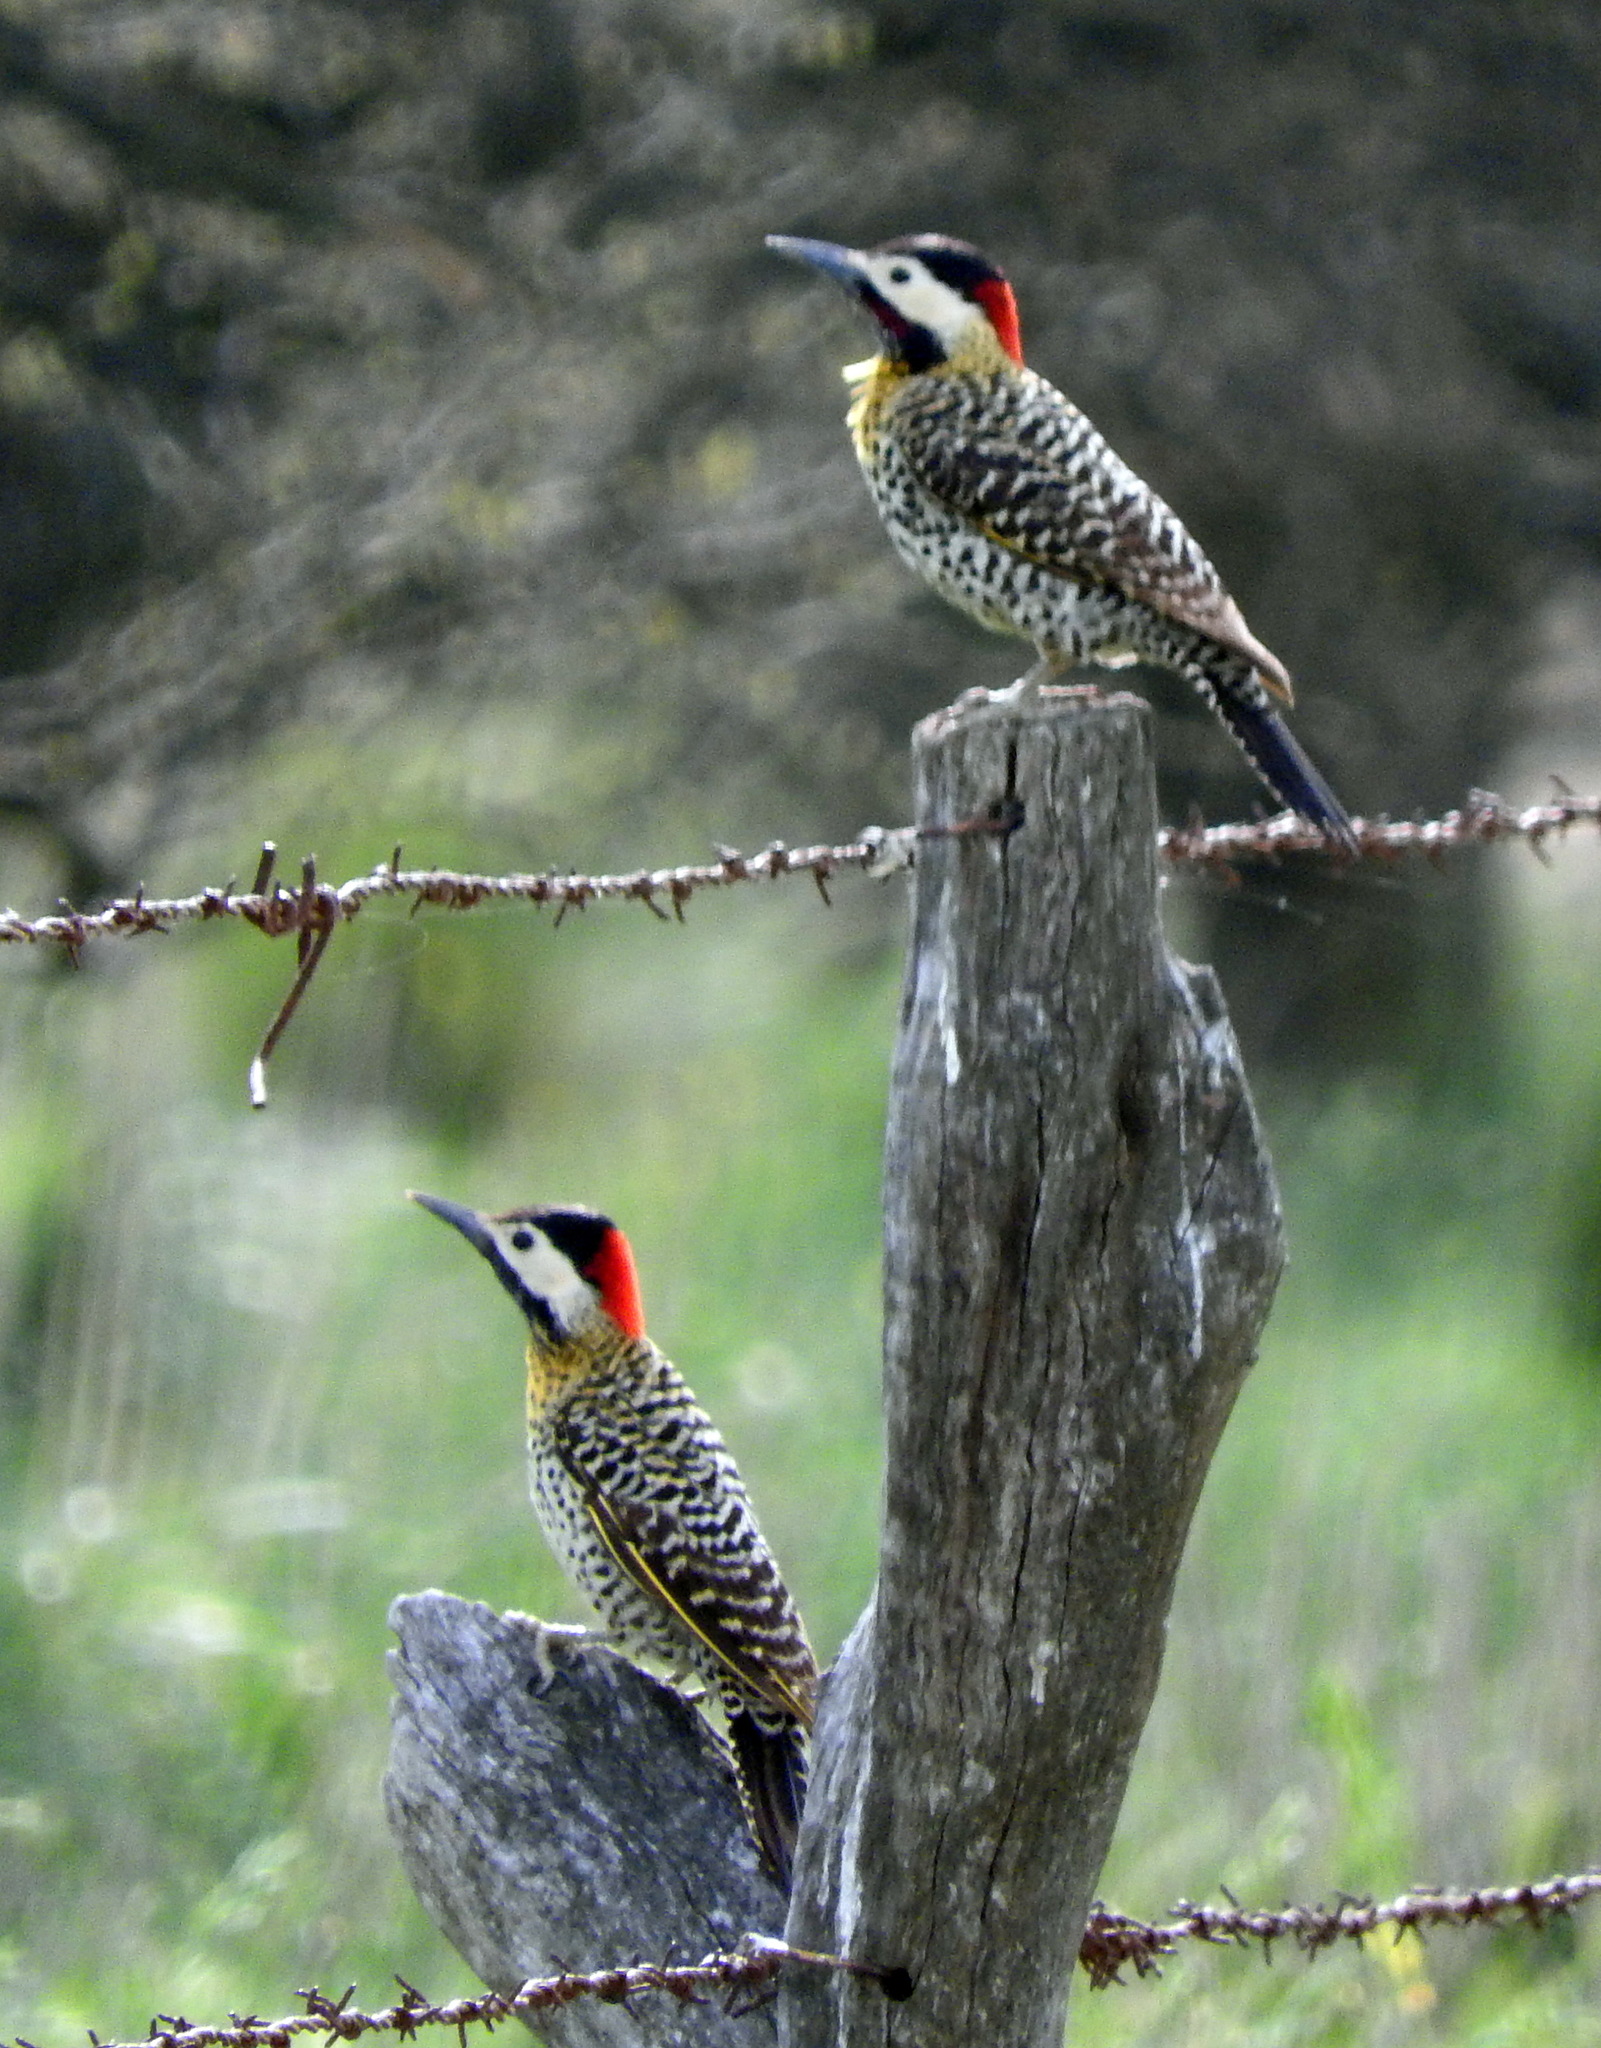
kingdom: Animalia
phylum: Chordata
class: Aves
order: Piciformes
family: Picidae
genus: Colaptes
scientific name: Colaptes melanochloros
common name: Green-barred woodpecker
